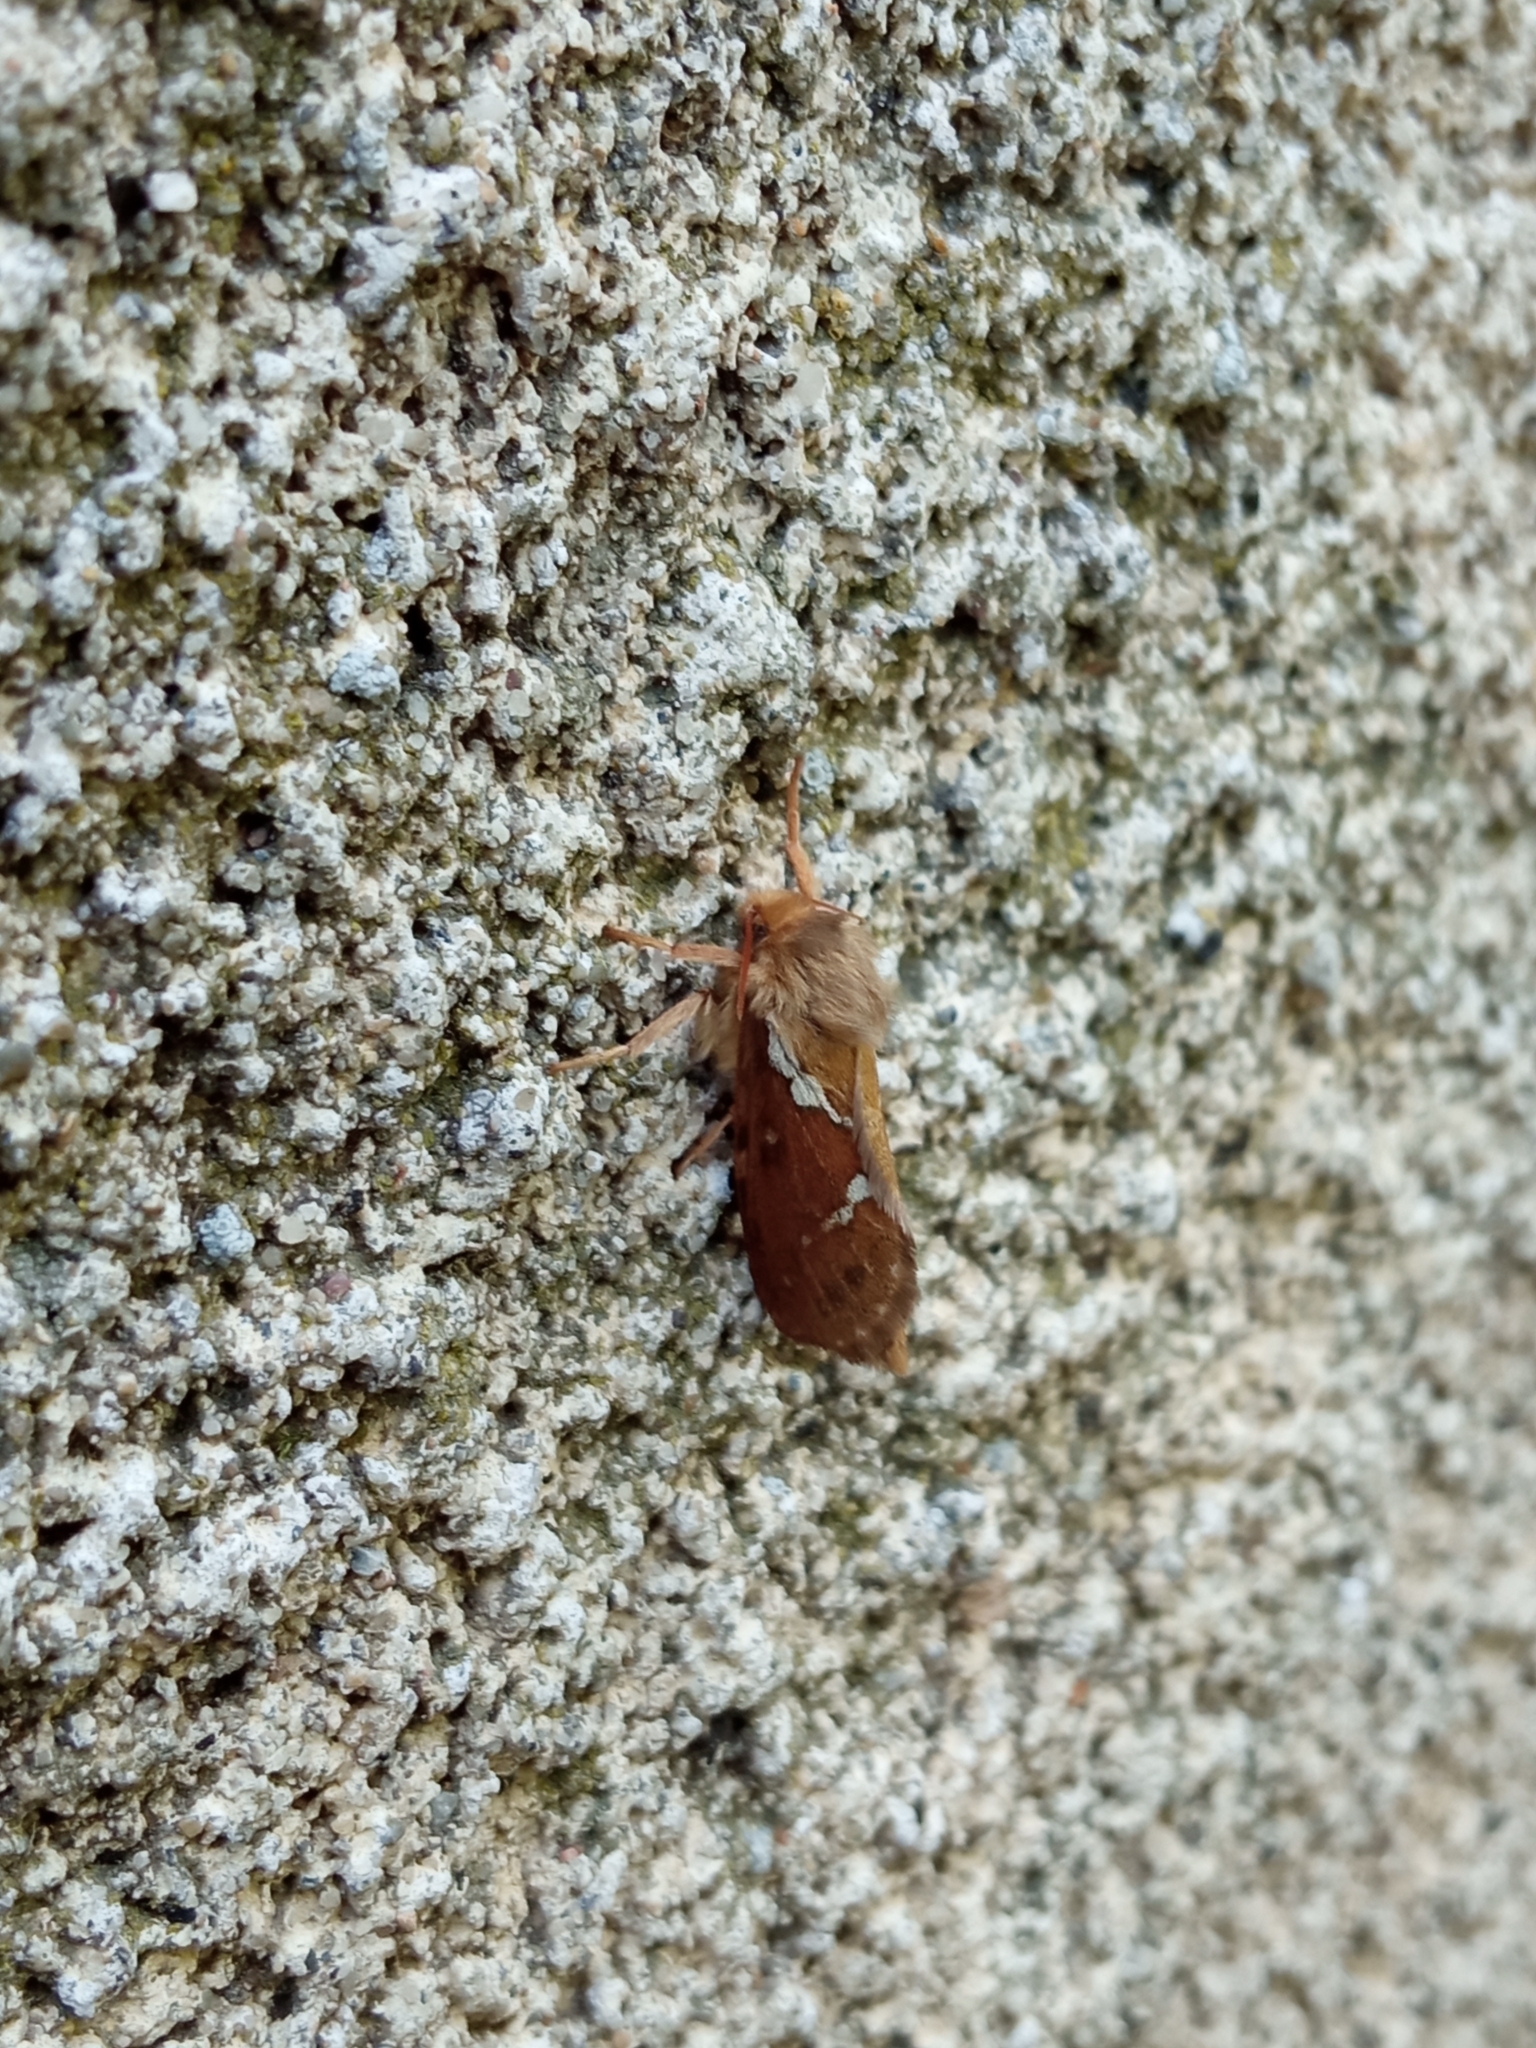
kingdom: Animalia
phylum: Arthropoda
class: Insecta
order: Lepidoptera
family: Hepialidae
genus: Korscheltellus
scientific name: Korscheltellus lupulina
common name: Common swift
